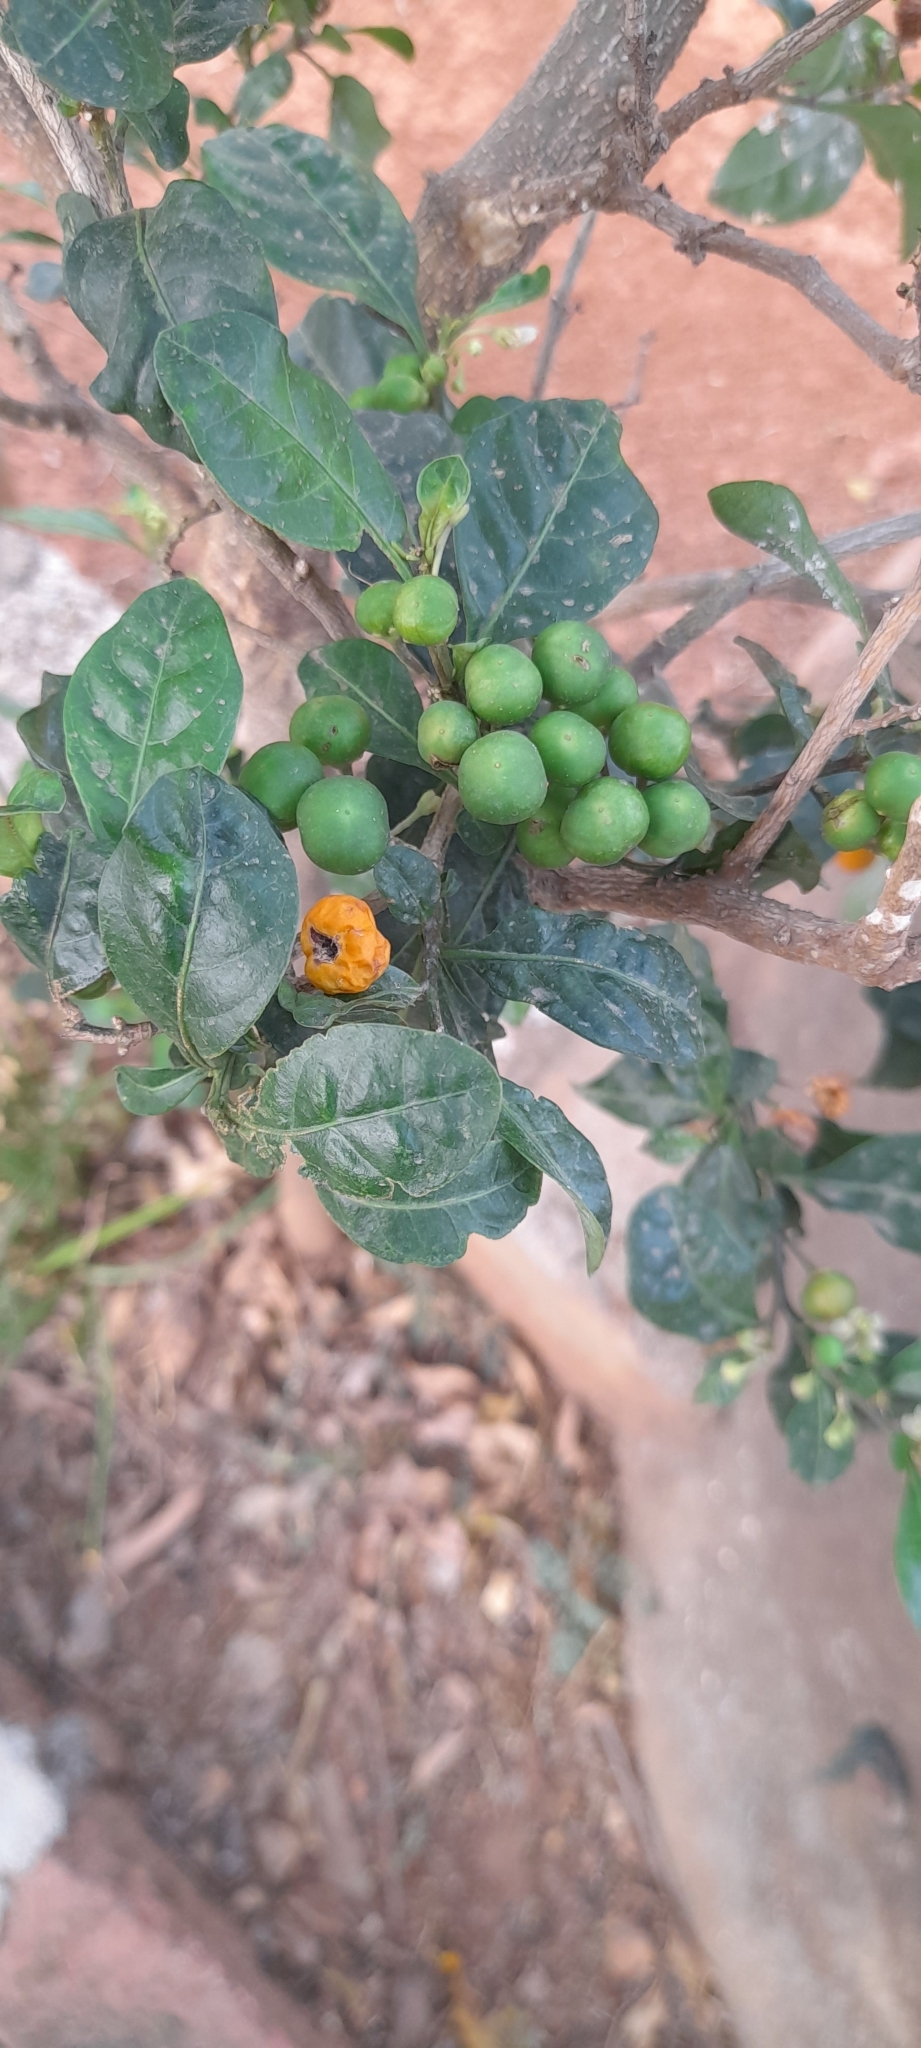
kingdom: Plantae
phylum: Tracheophyta
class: Magnoliopsida
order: Solanales
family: Solanaceae
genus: Solanum
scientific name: Solanum diphyllum
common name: Twoleaf nightshade
